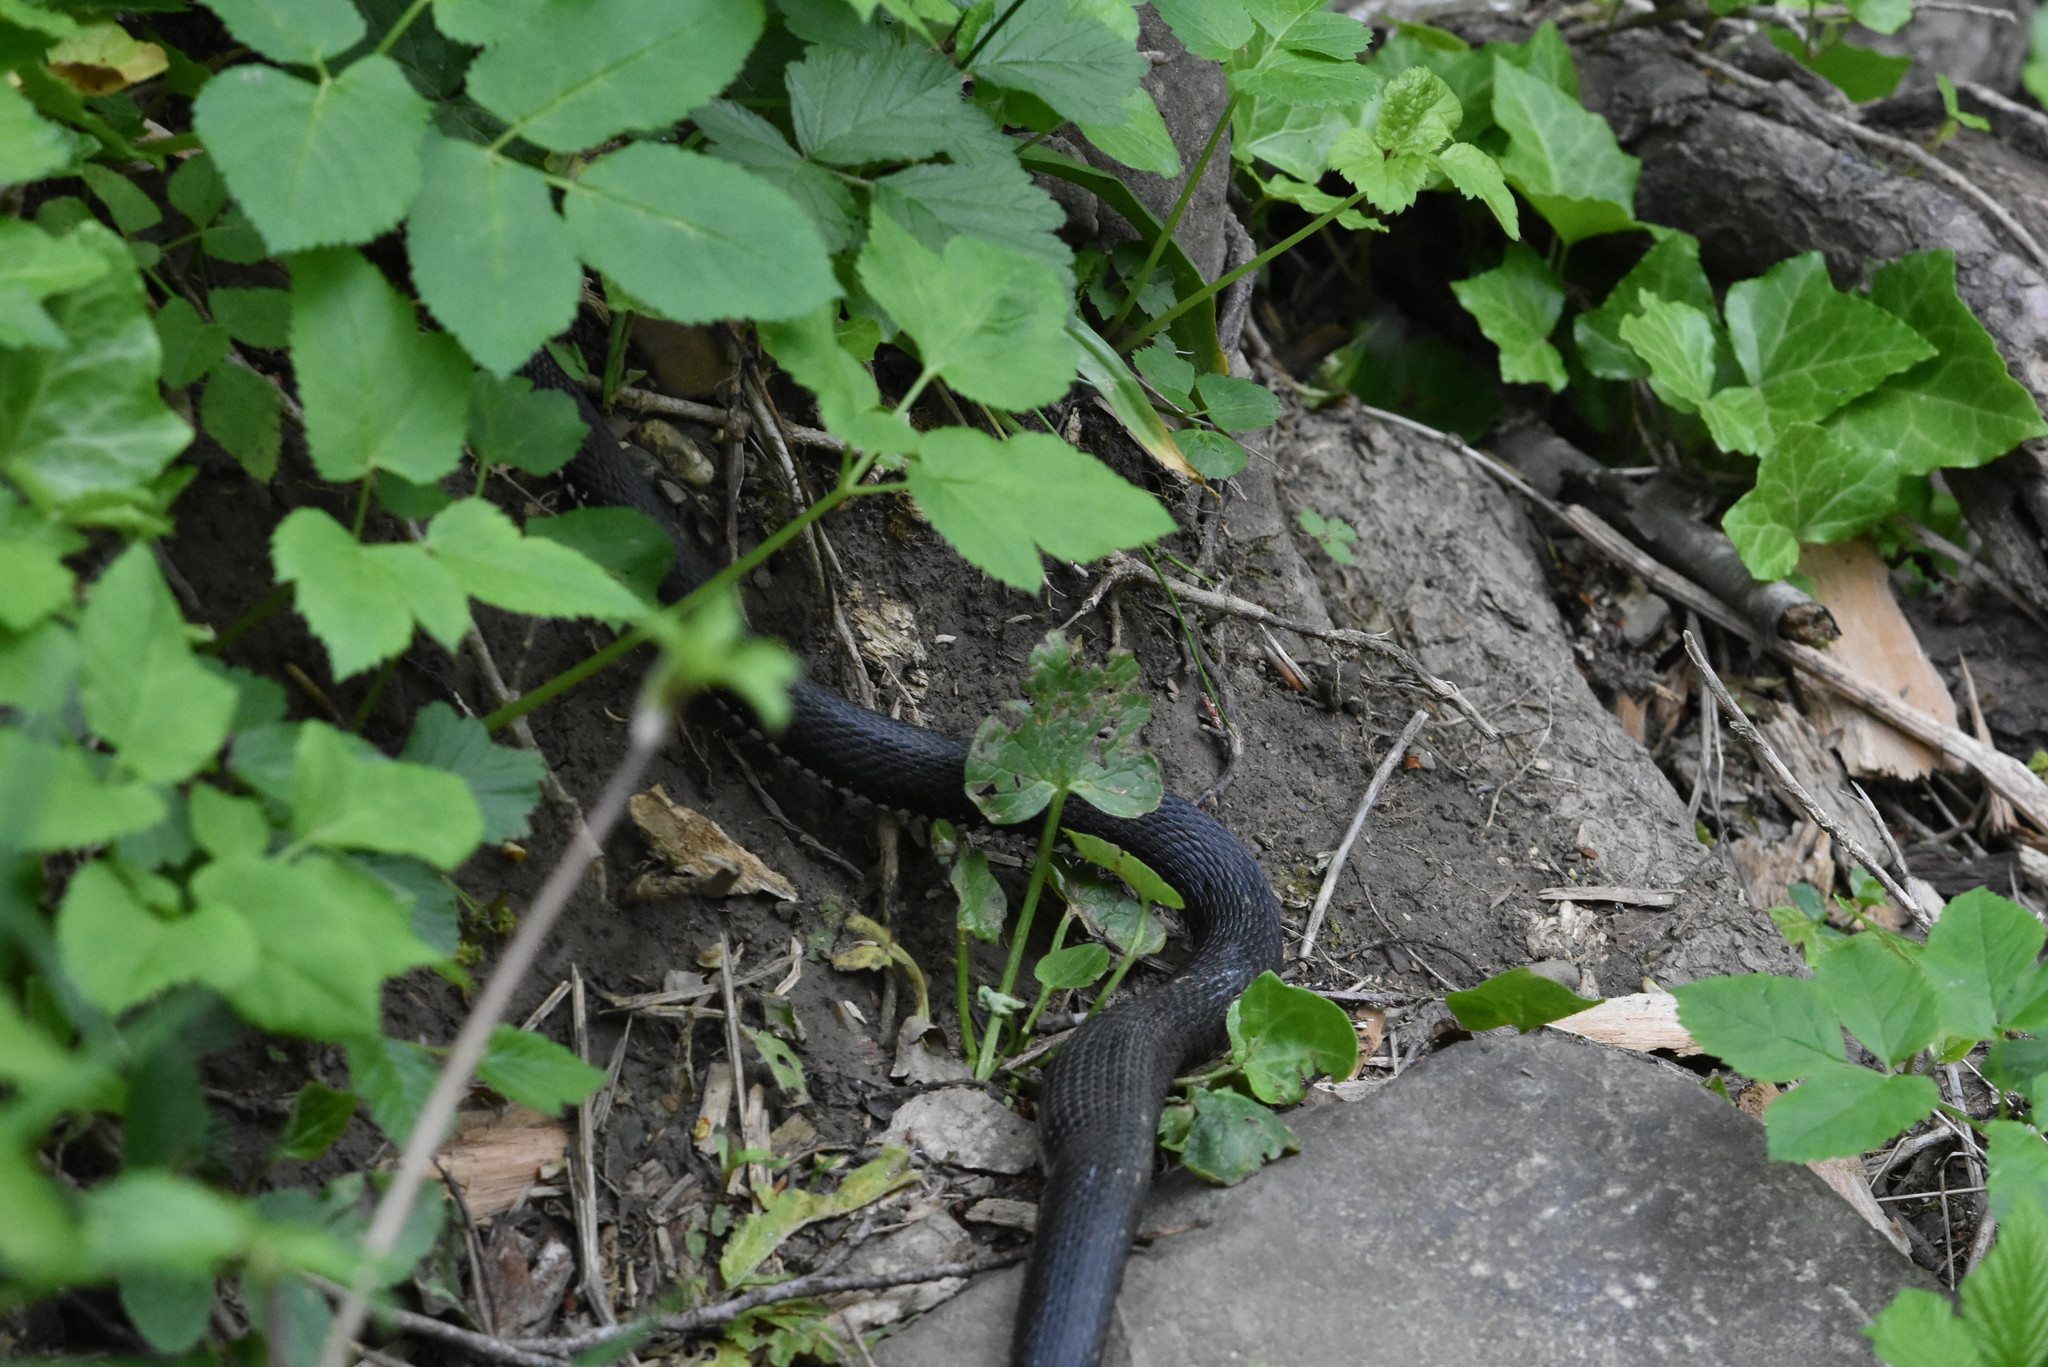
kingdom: Animalia
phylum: Chordata
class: Squamata
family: Colubridae
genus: Natrix
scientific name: Natrix natrix
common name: Grass snake
